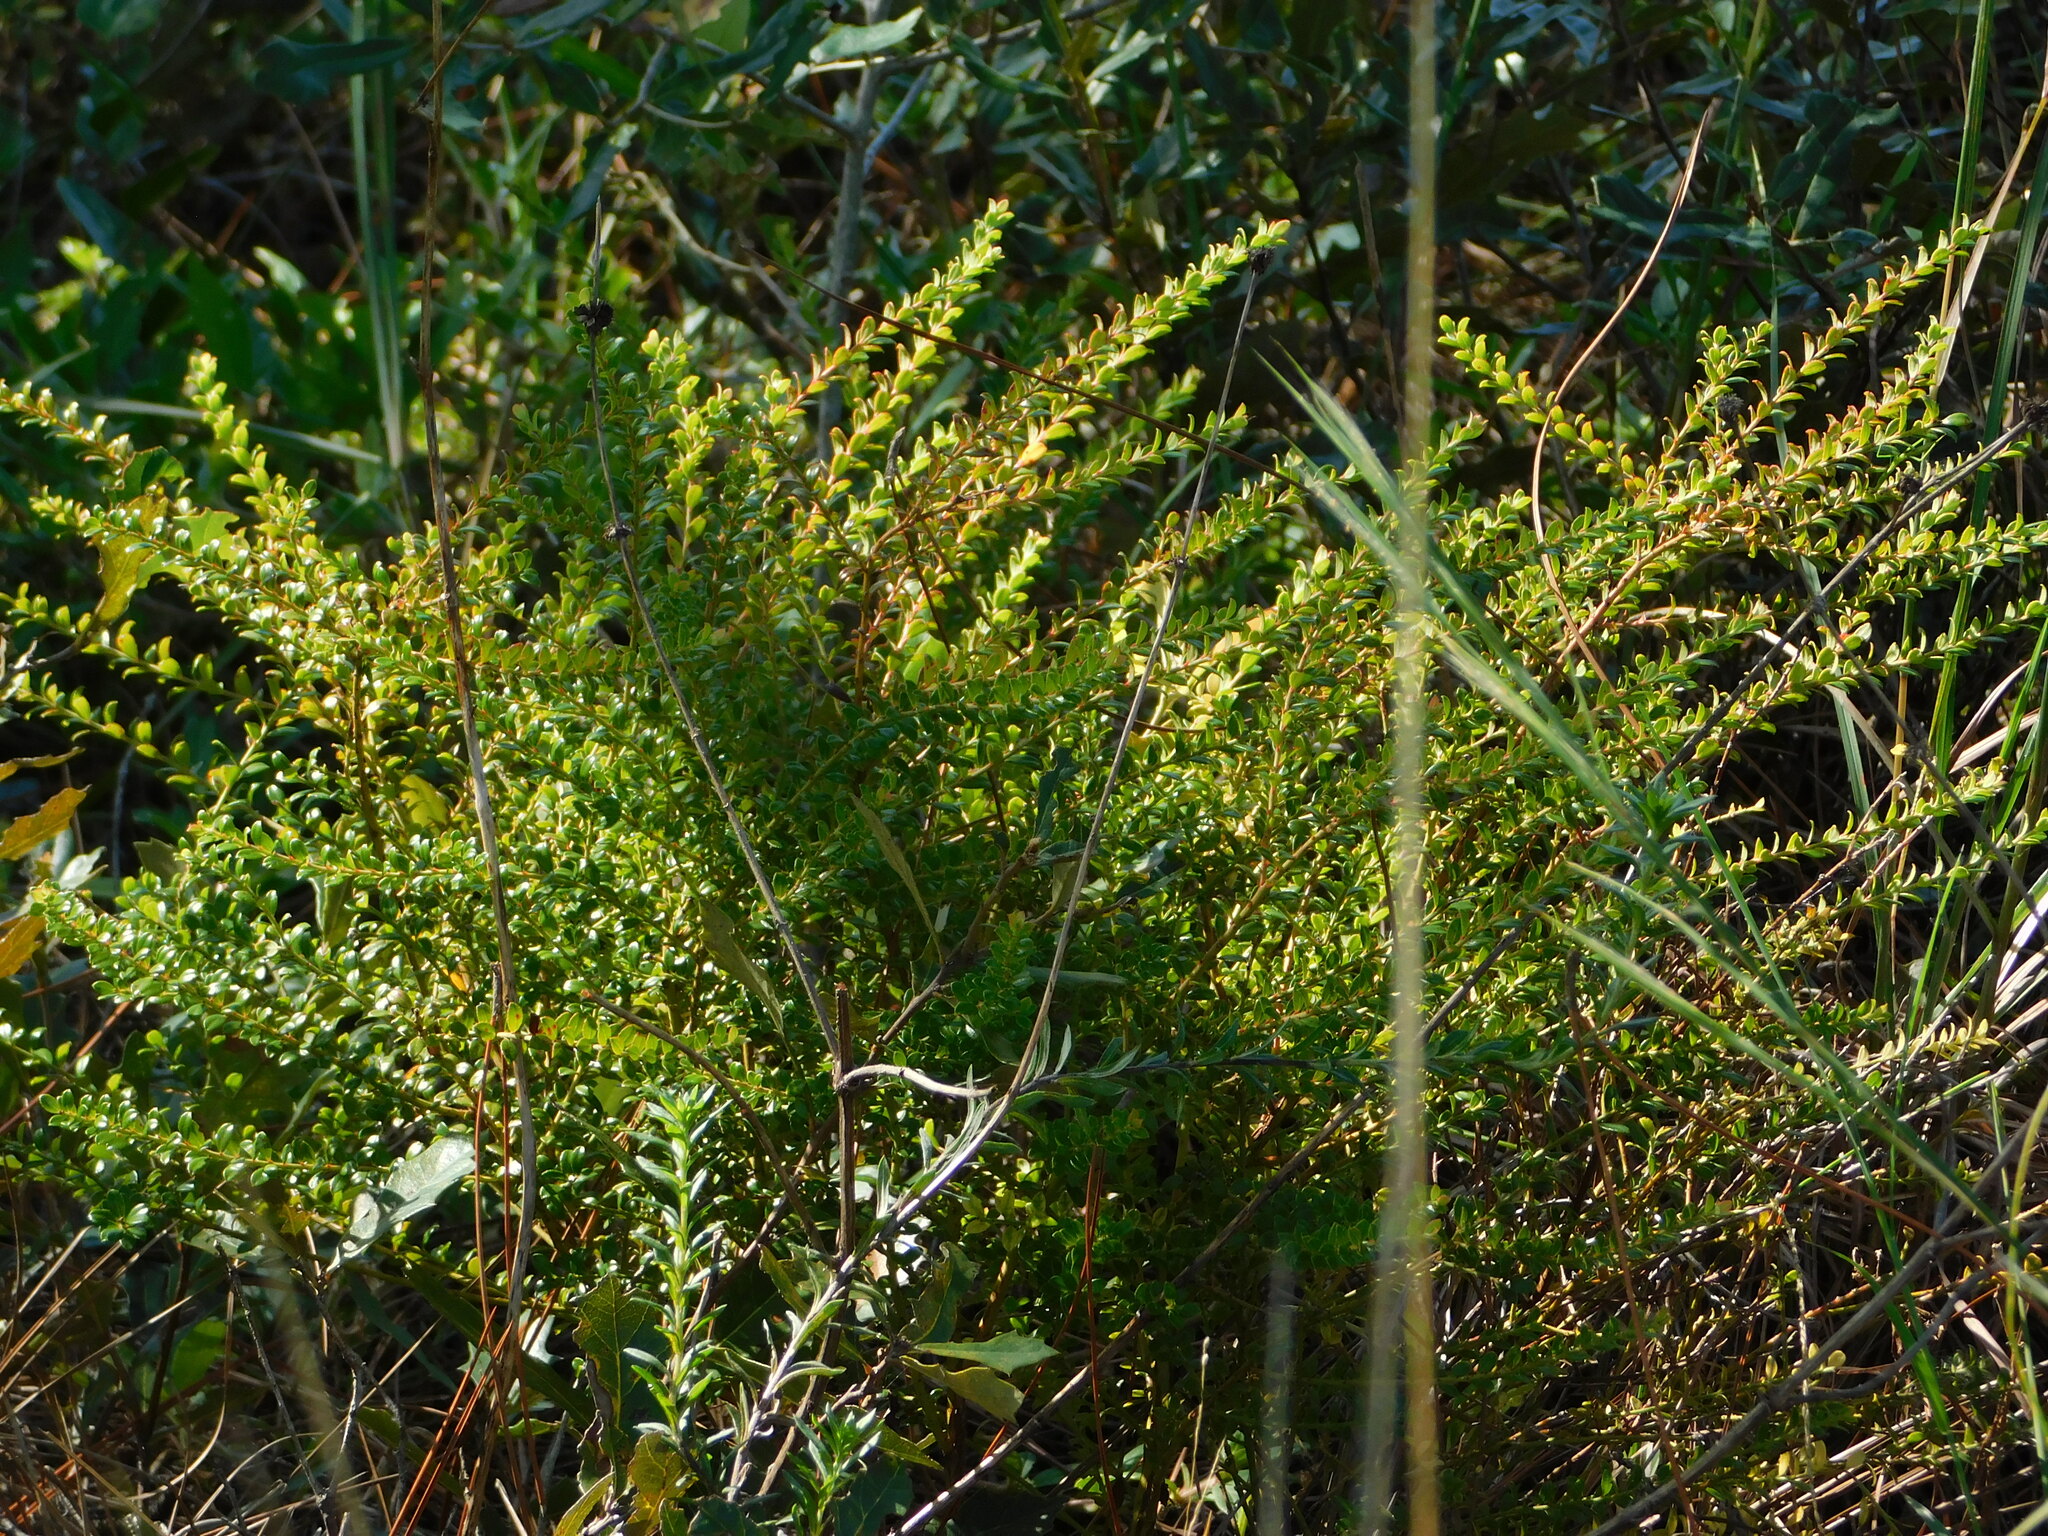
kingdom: Plantae
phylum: Tracheophyta
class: Magnoliopsida
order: Ericales
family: Ericaceae
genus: Vaccinium
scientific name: Vaccinium myrsinites
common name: Evergreen blueberry
